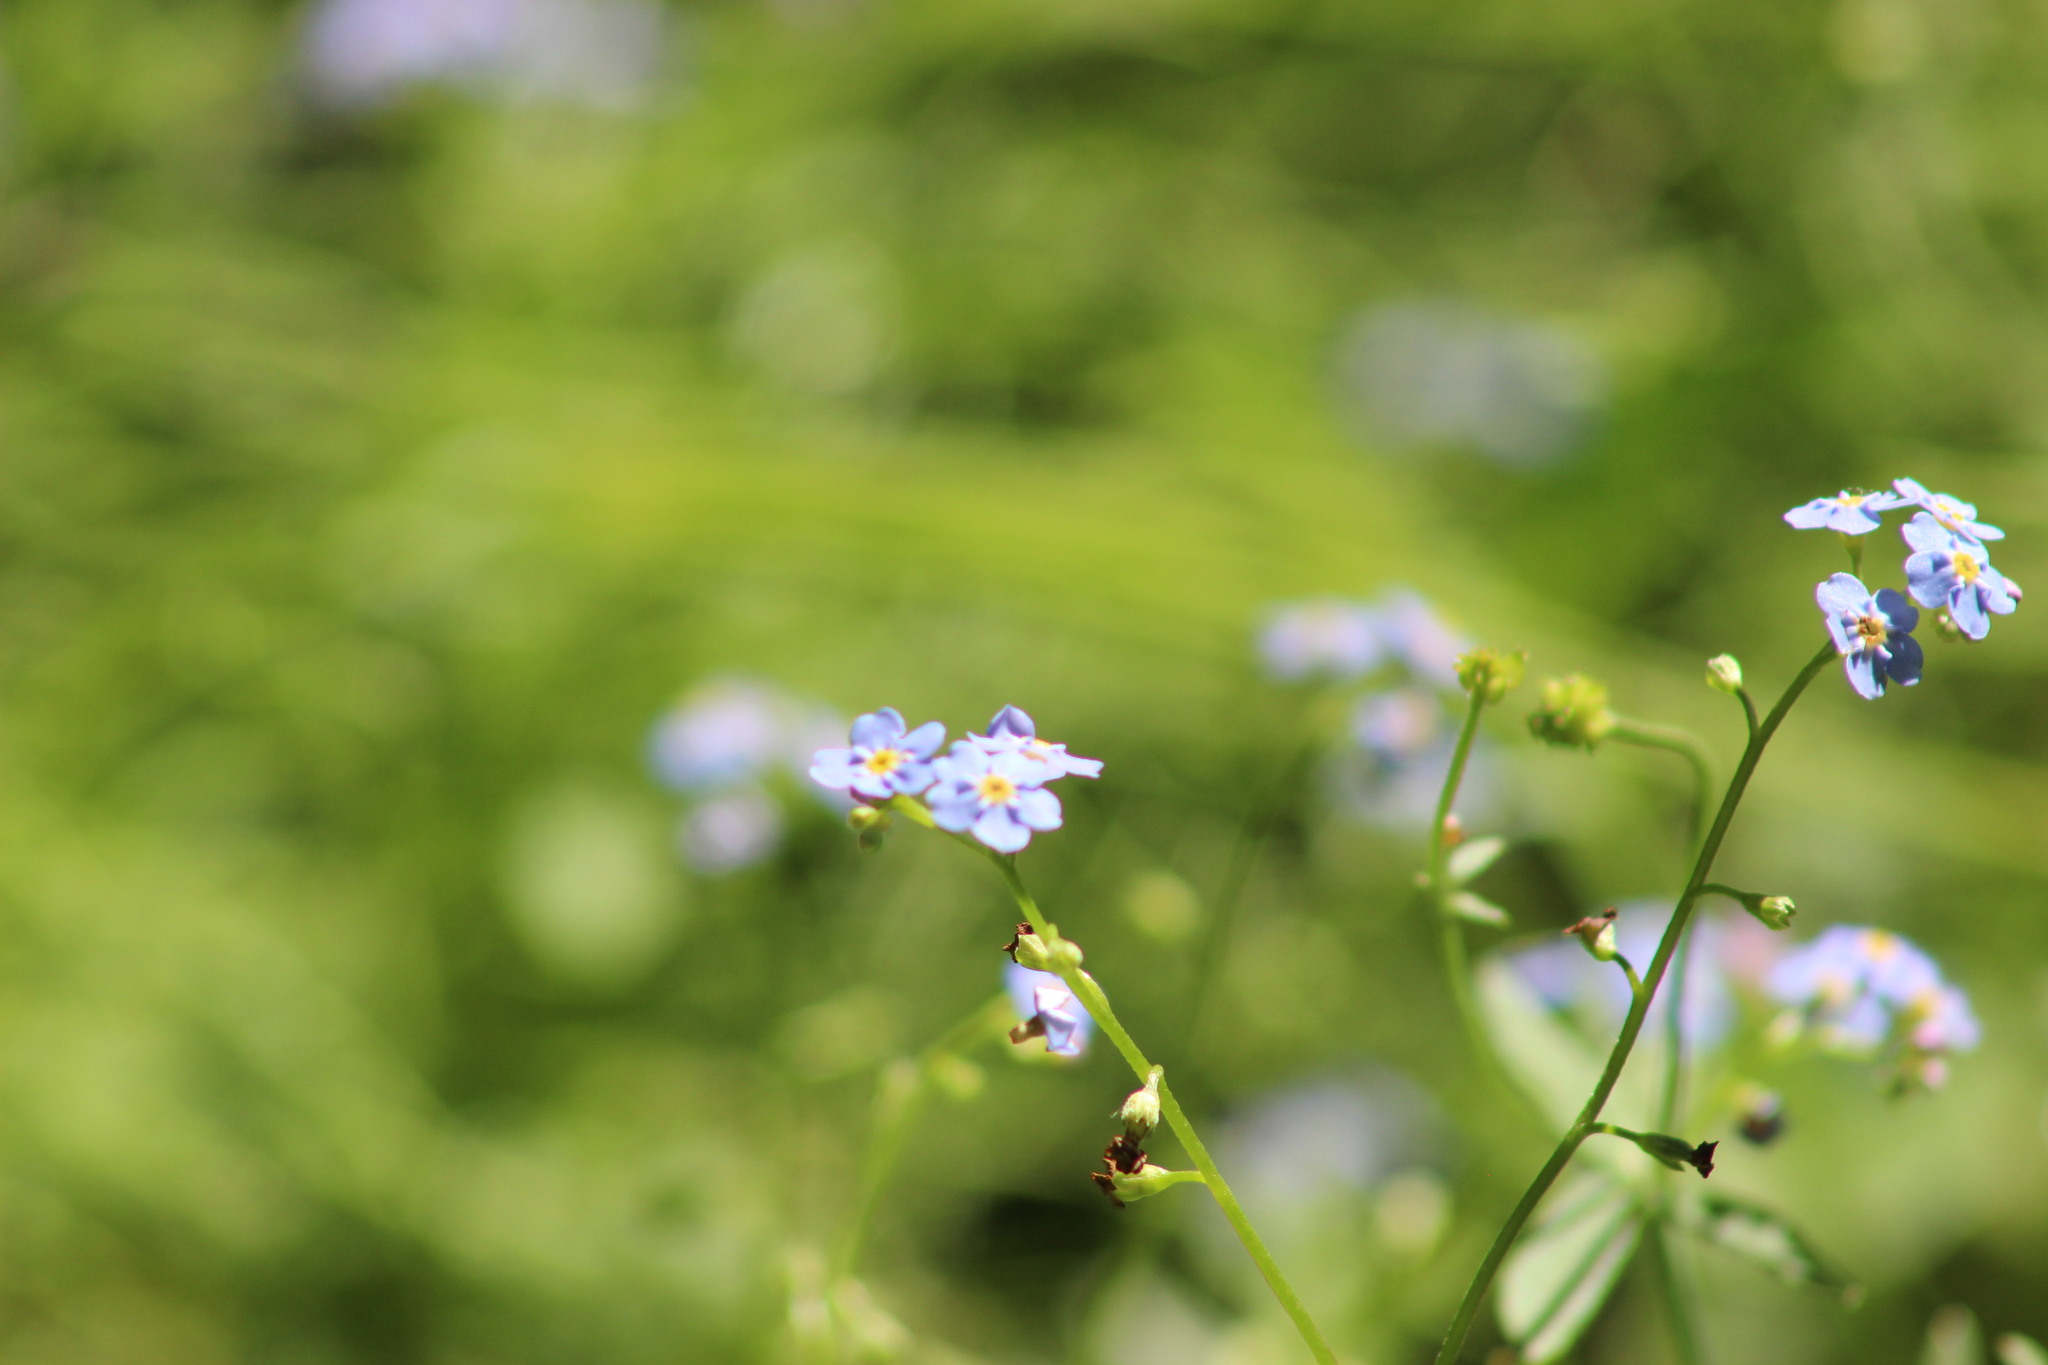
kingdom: Plantae
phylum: Tracheophyta
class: Magnoliopsida
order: Boraginales
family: Boraginaceae
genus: Myosotis
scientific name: Myosotis scorpioides
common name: Water forget-me-not
